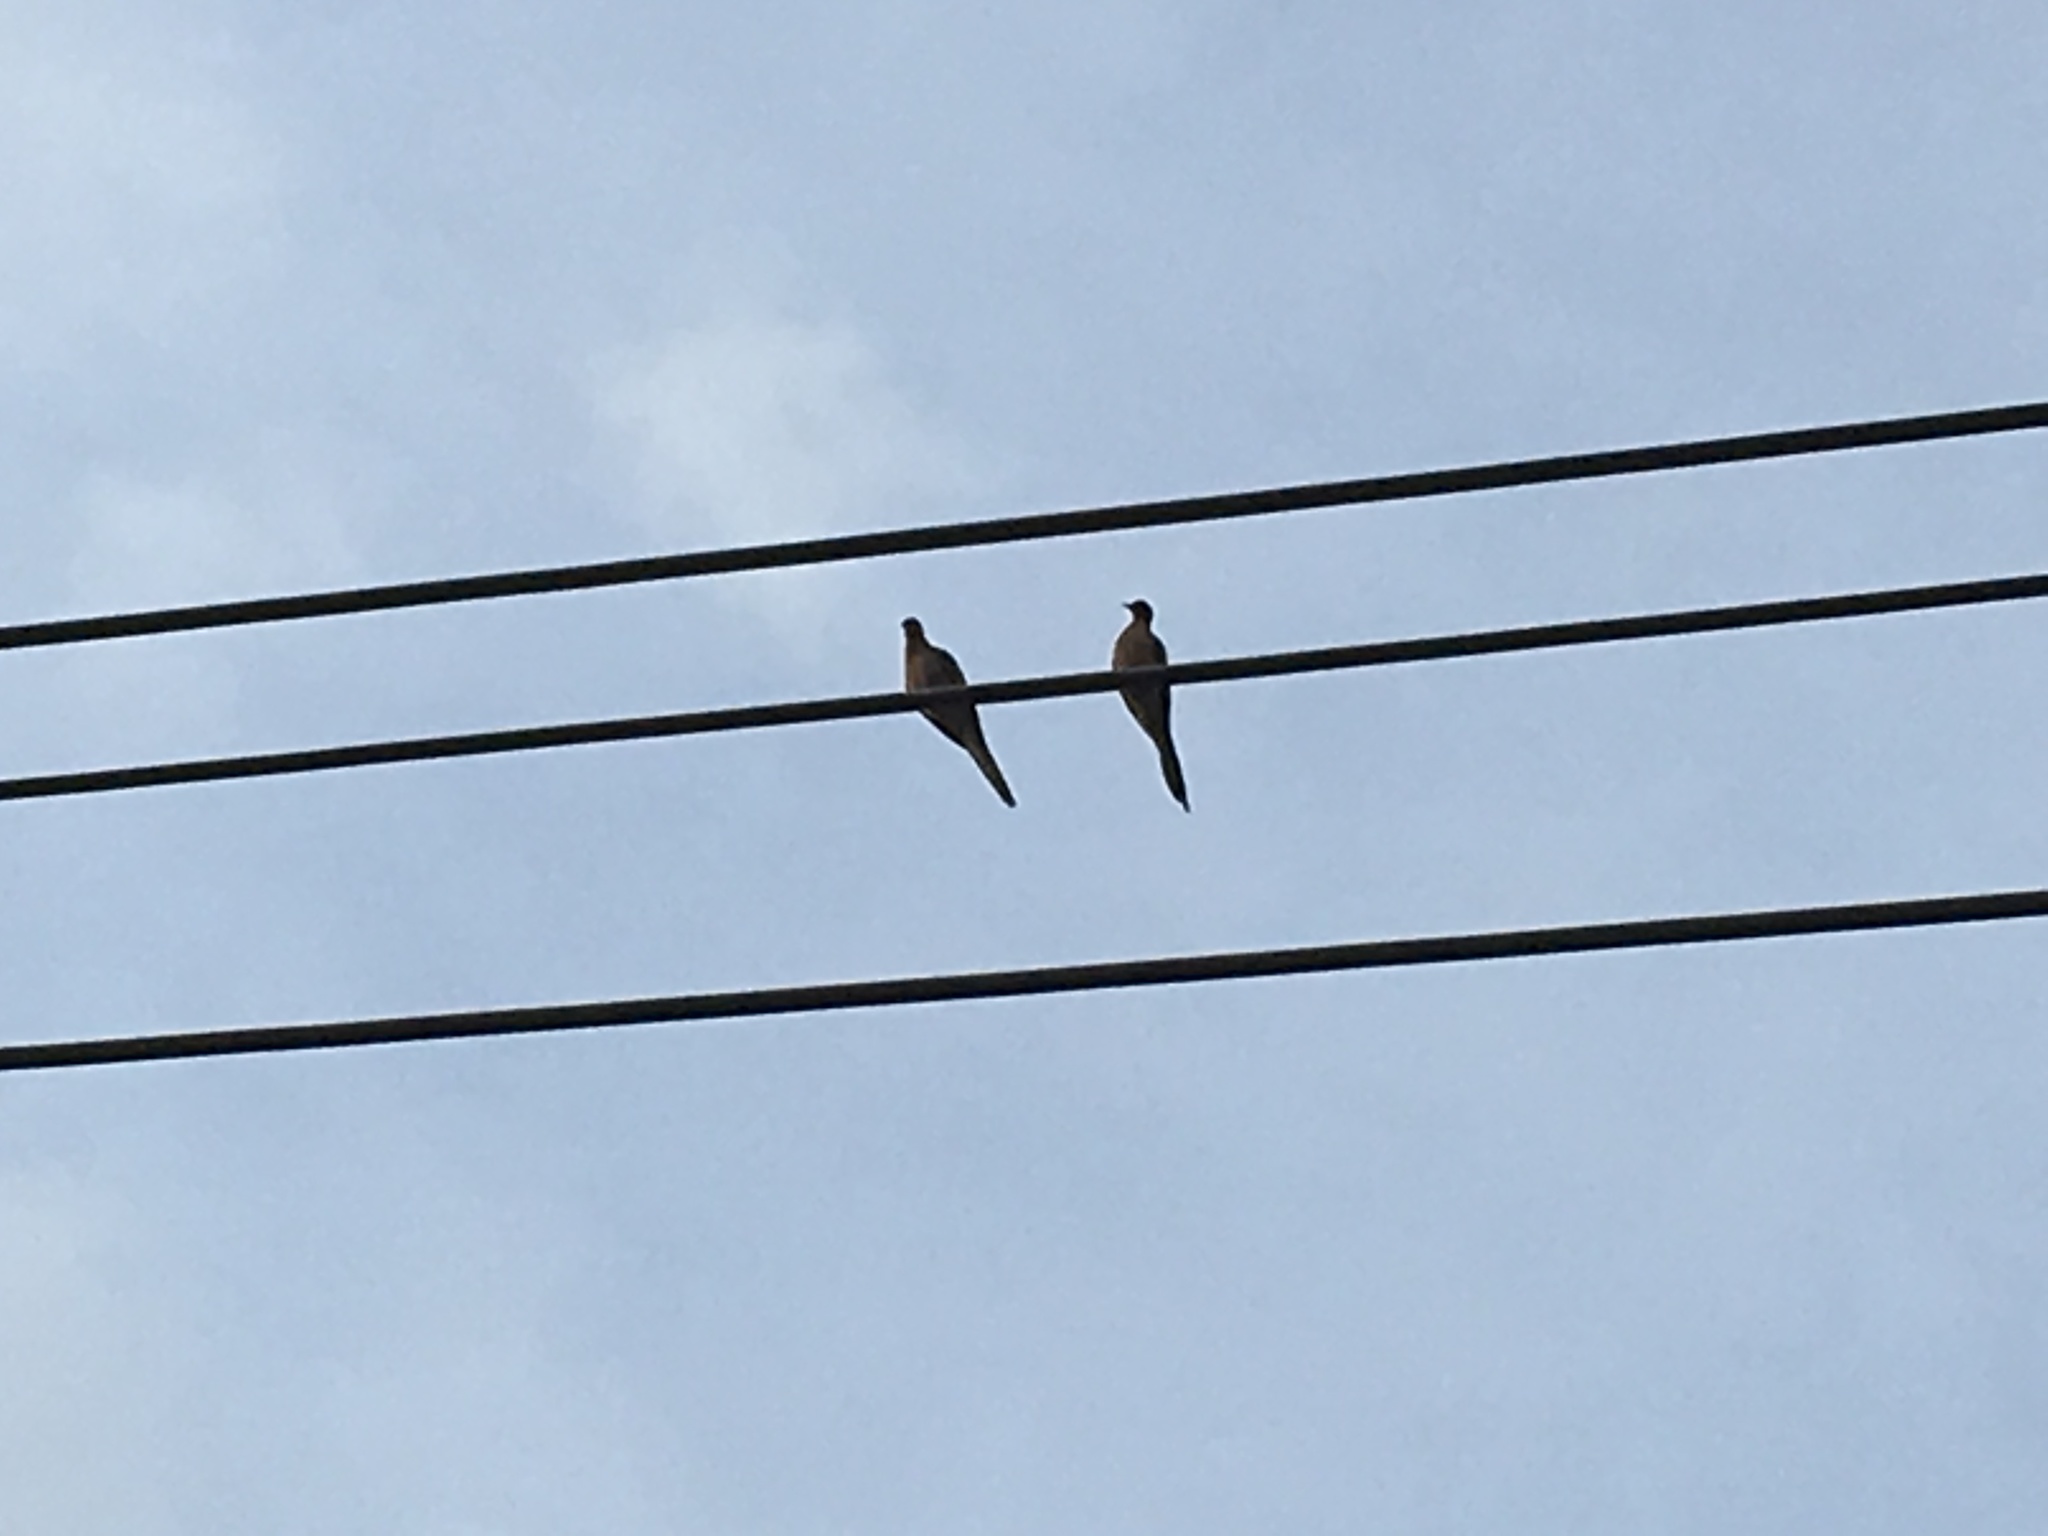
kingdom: Animalia
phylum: Chordata
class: Aves
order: Columbiformes
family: Columbidae
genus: Zenaida
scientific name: Zenaida macroura
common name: Mourning dove
